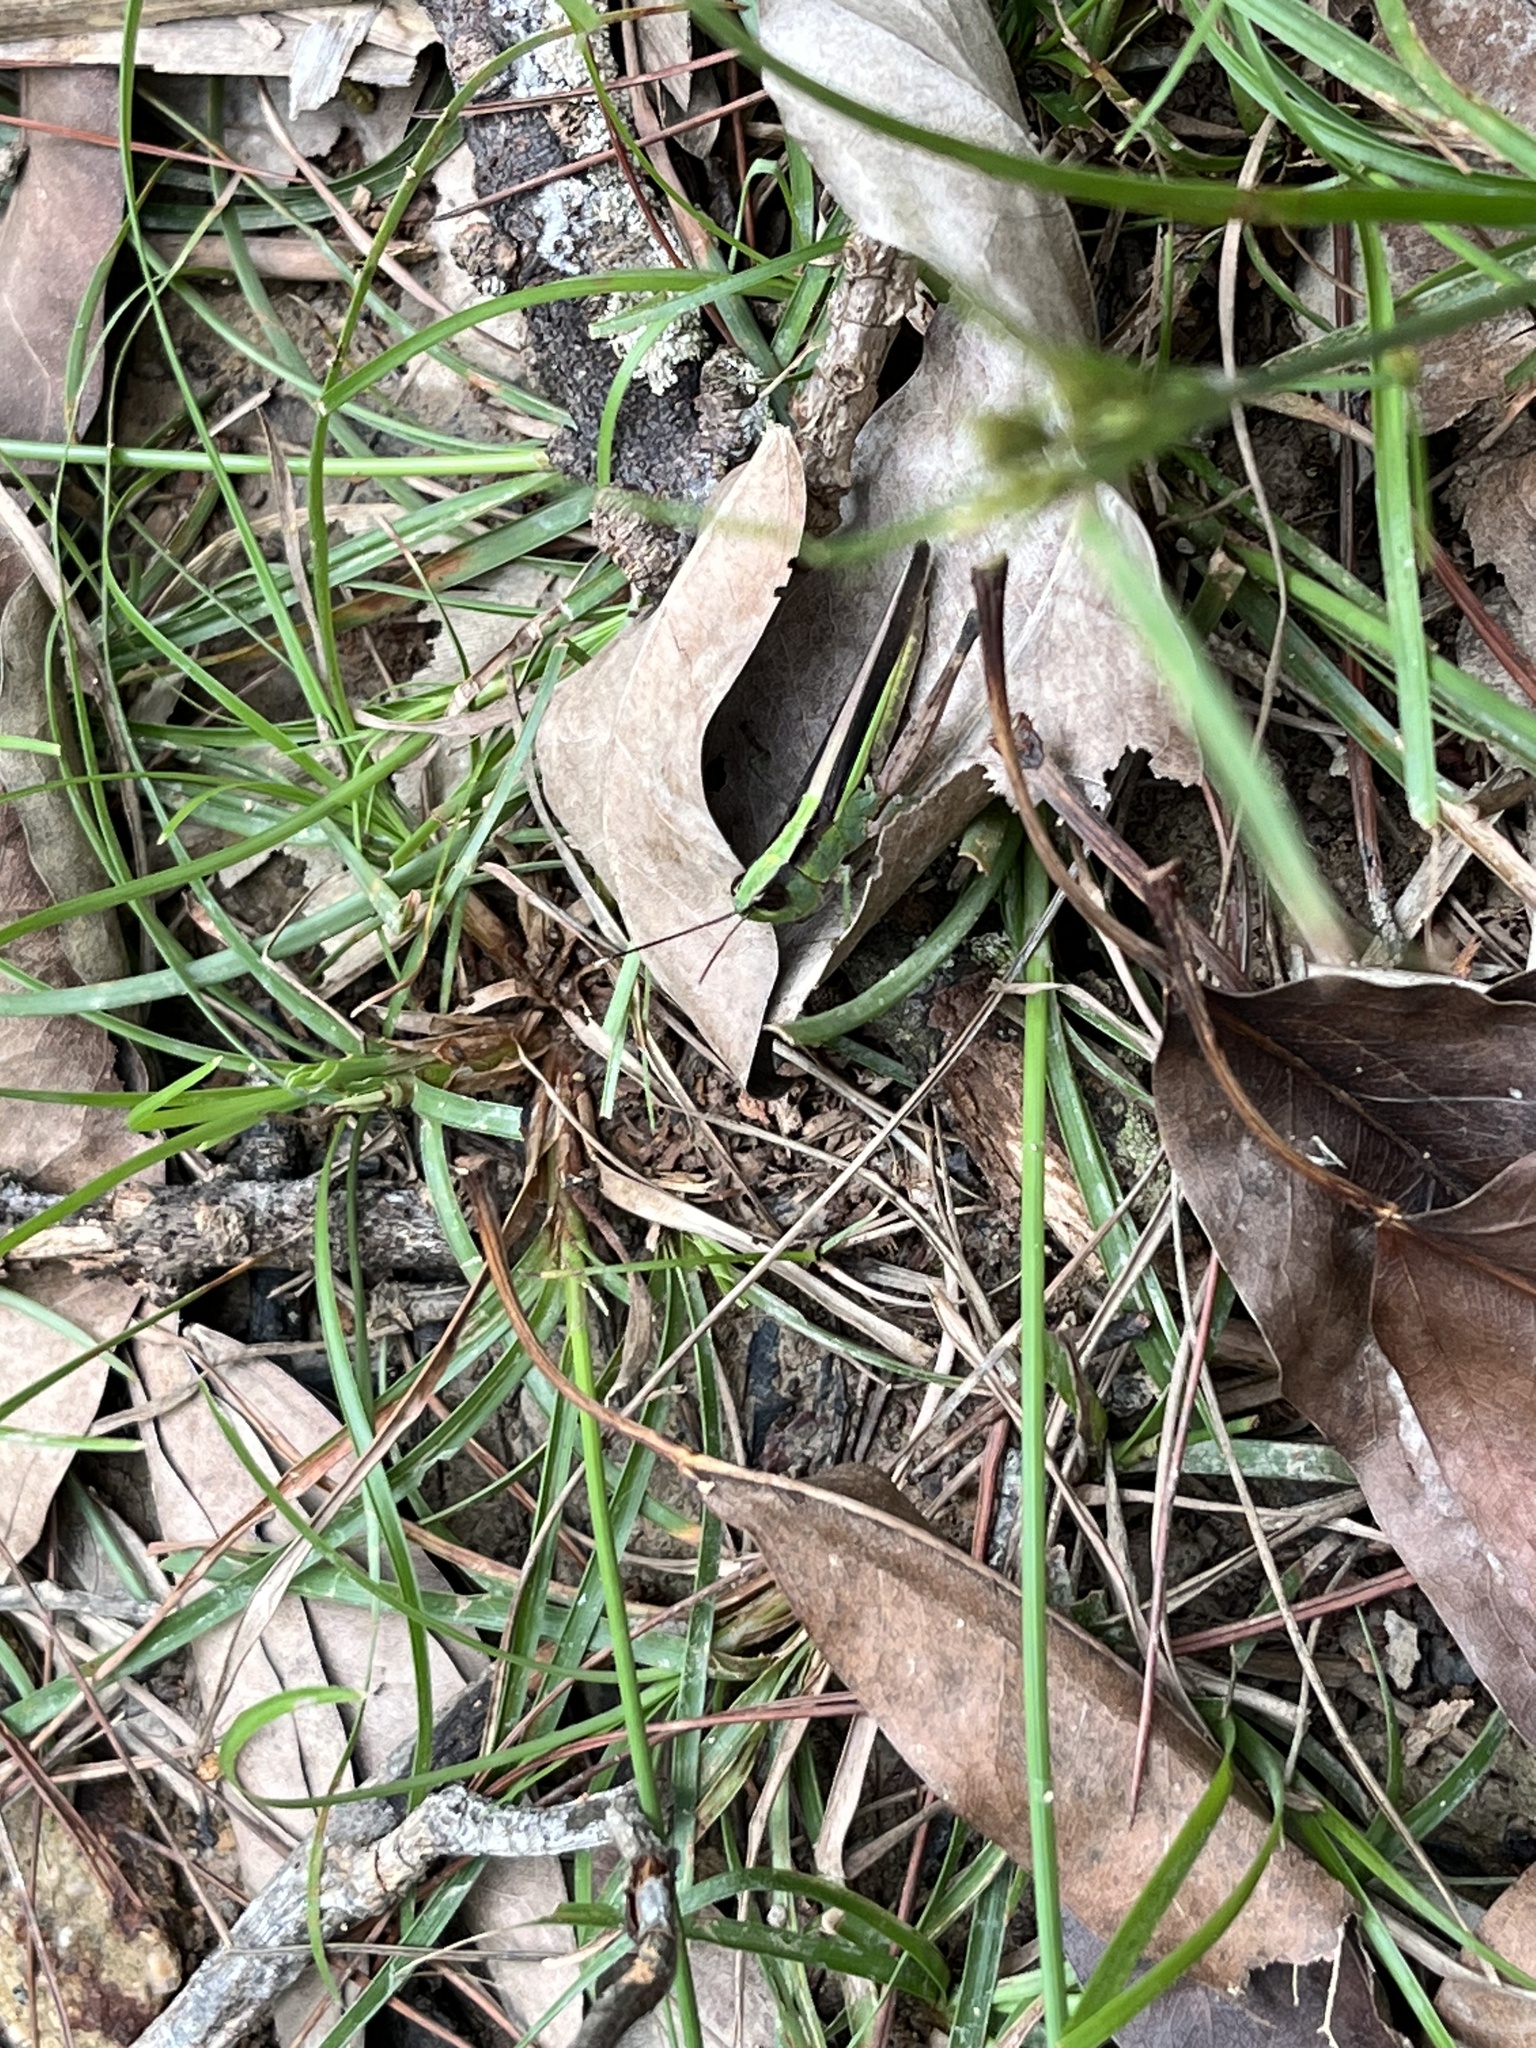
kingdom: Animalia
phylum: Arthropoda
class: Insecta
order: Orthoptera
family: Acrididae
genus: Ceracris
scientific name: Ceracris fasciata
